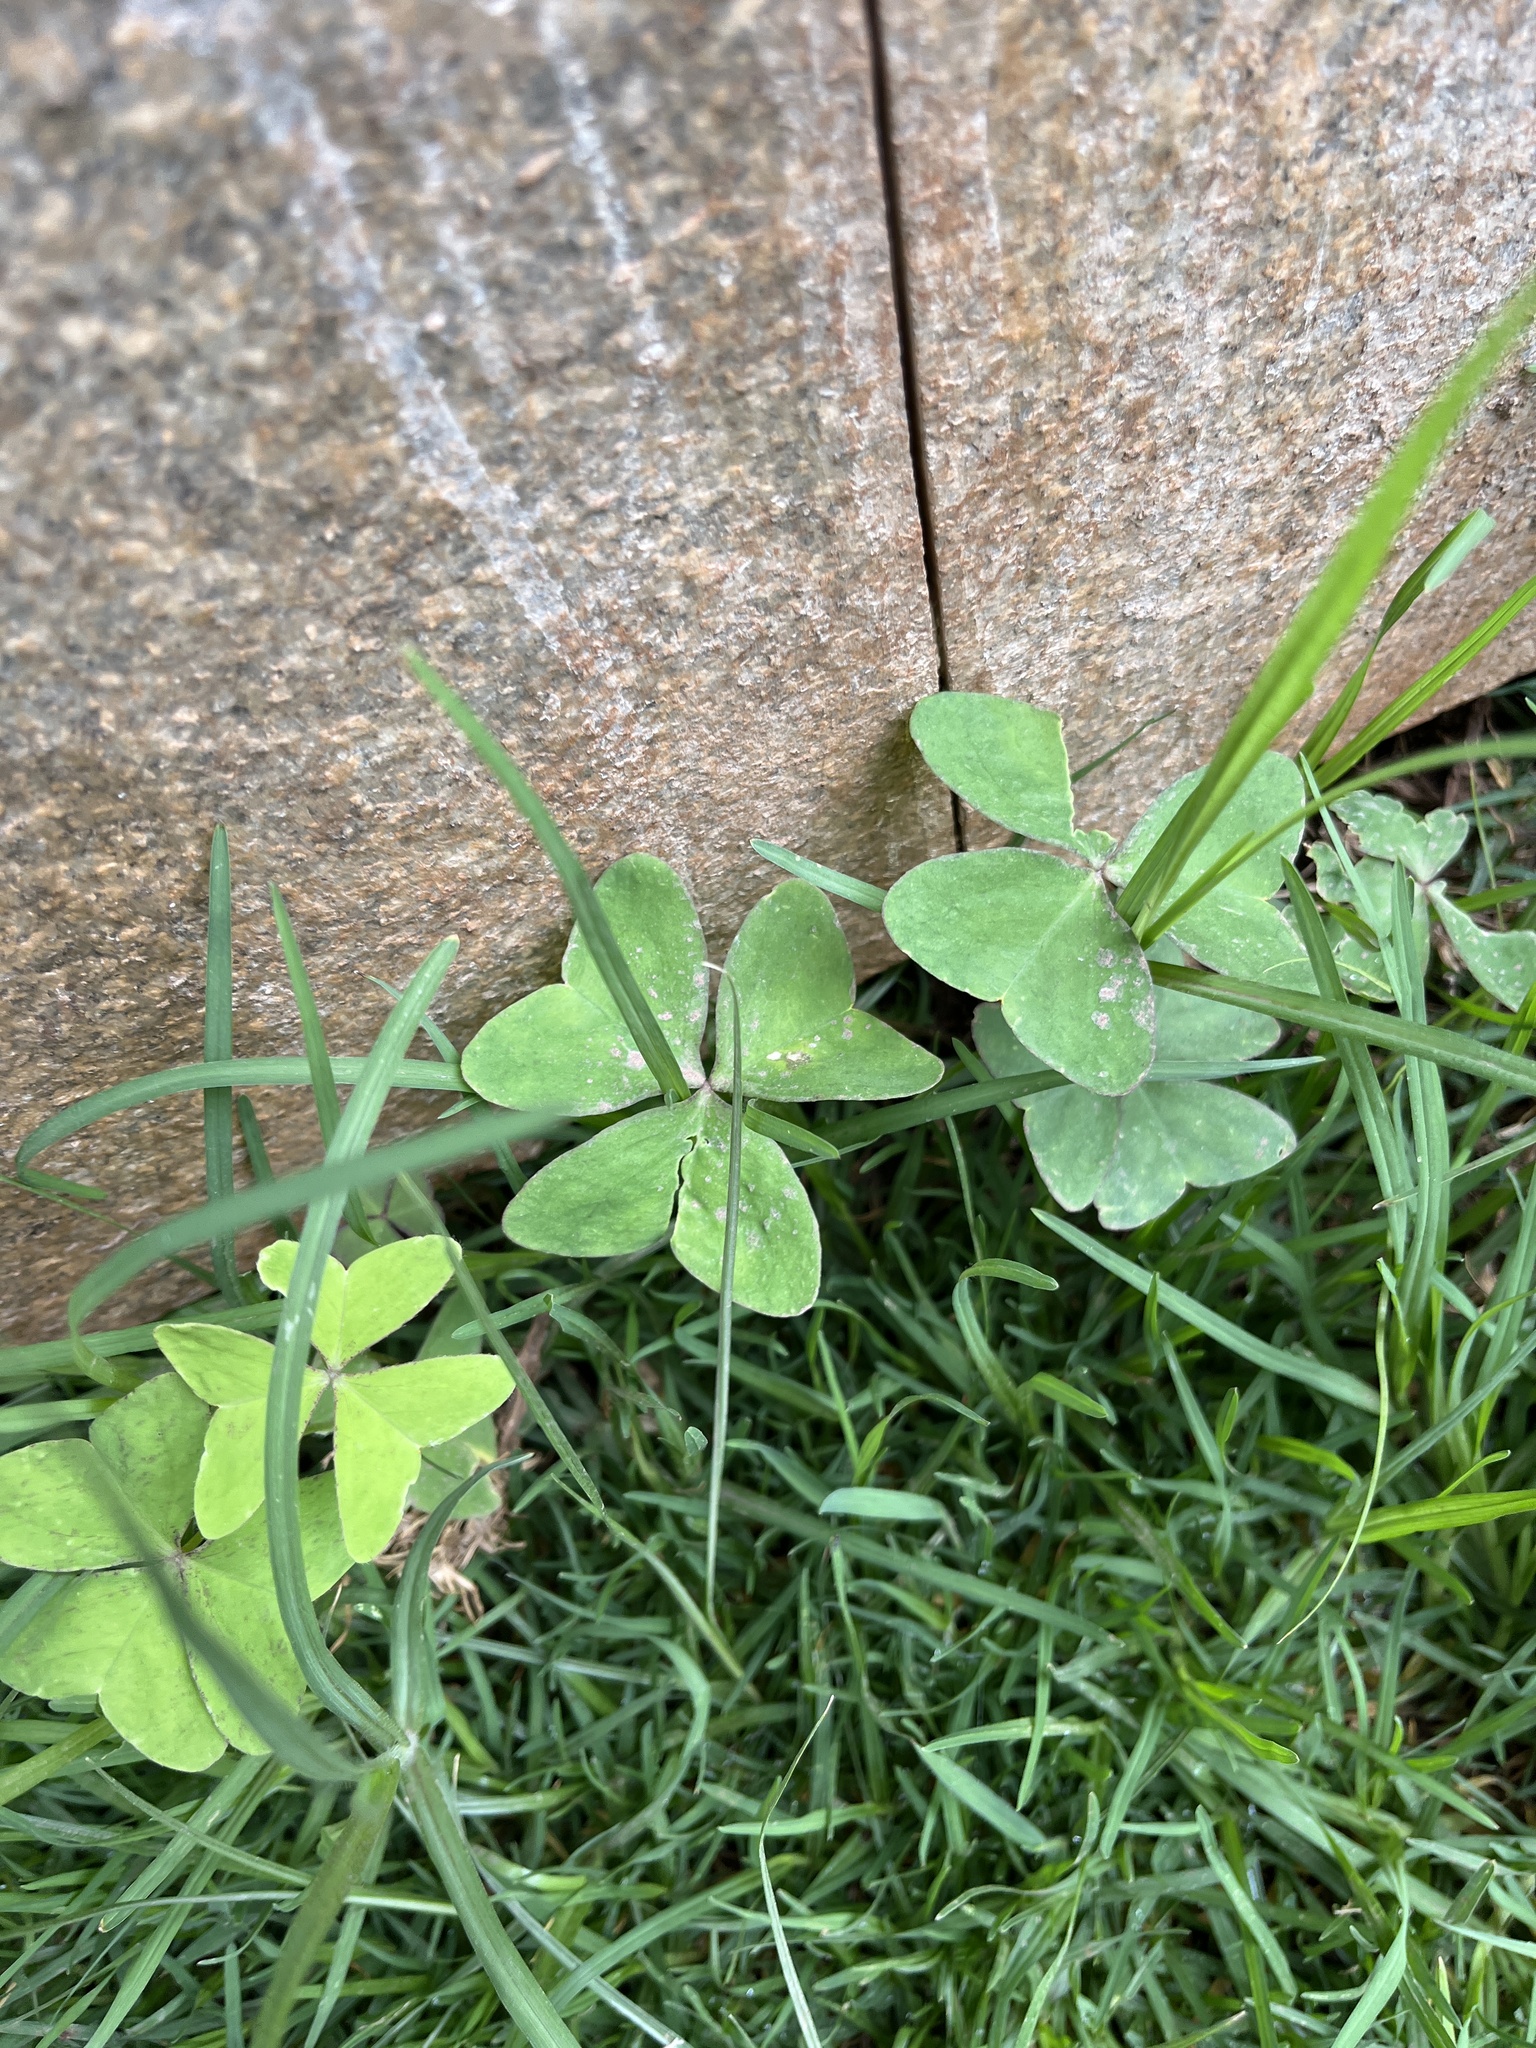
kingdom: Plantae
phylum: Tracheophyta
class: Magnoliopsida
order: Oxalidales
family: Oxalidaceae
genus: Oxalis
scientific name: Oxalis latifolia
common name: Garden pink-sorrel
